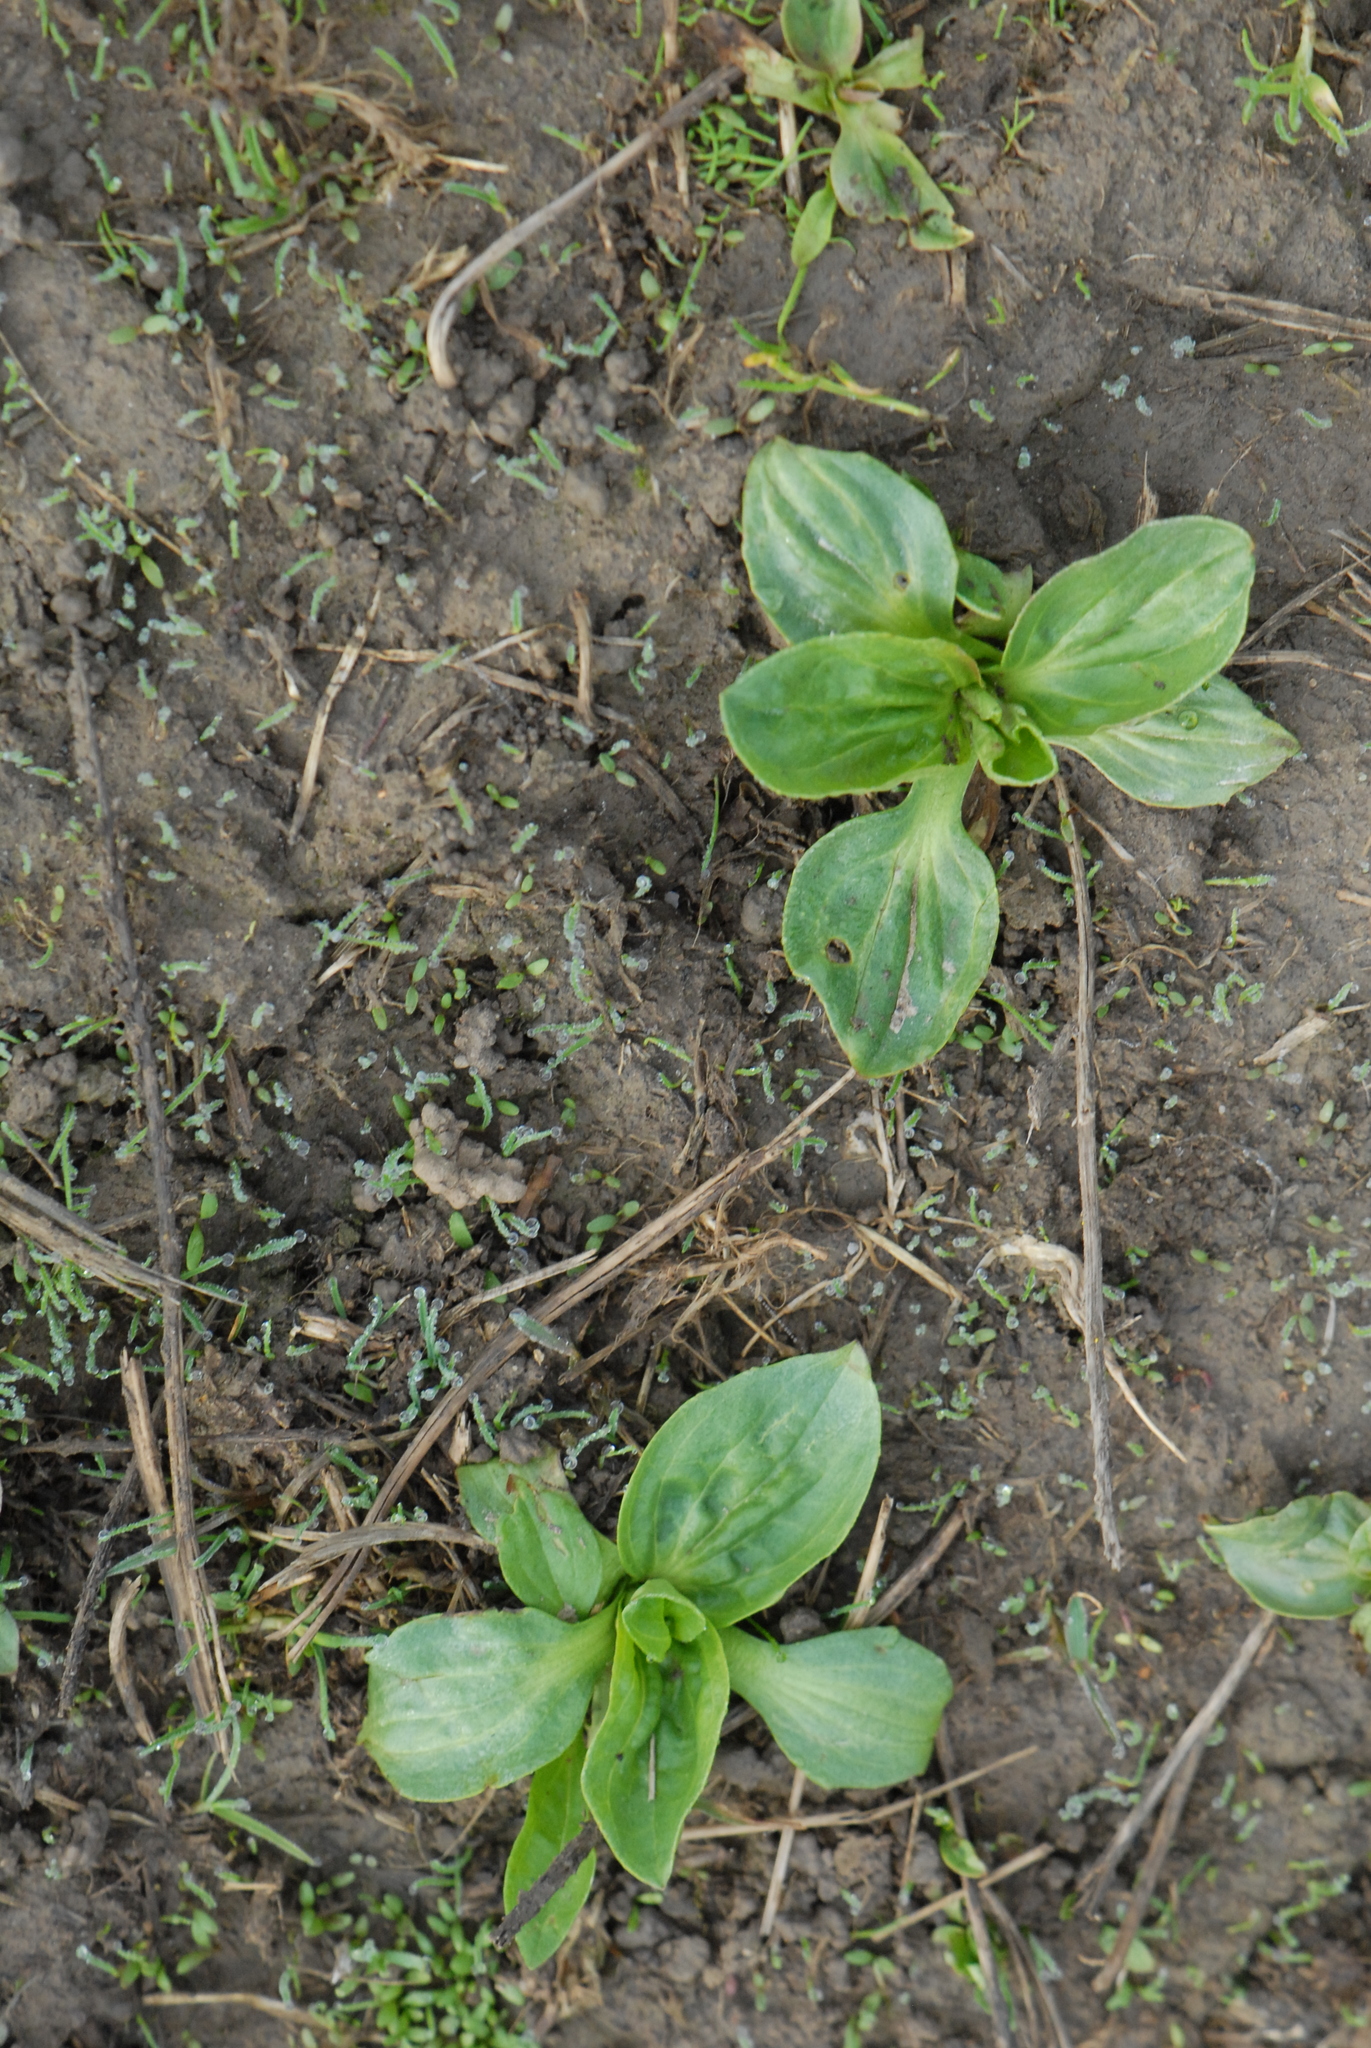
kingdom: Plantae
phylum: Tracheophyta
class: Magnoliopsida
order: Lamiales
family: Plantaginaceae
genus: Plantago
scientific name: Plantago major
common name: Common plantain
